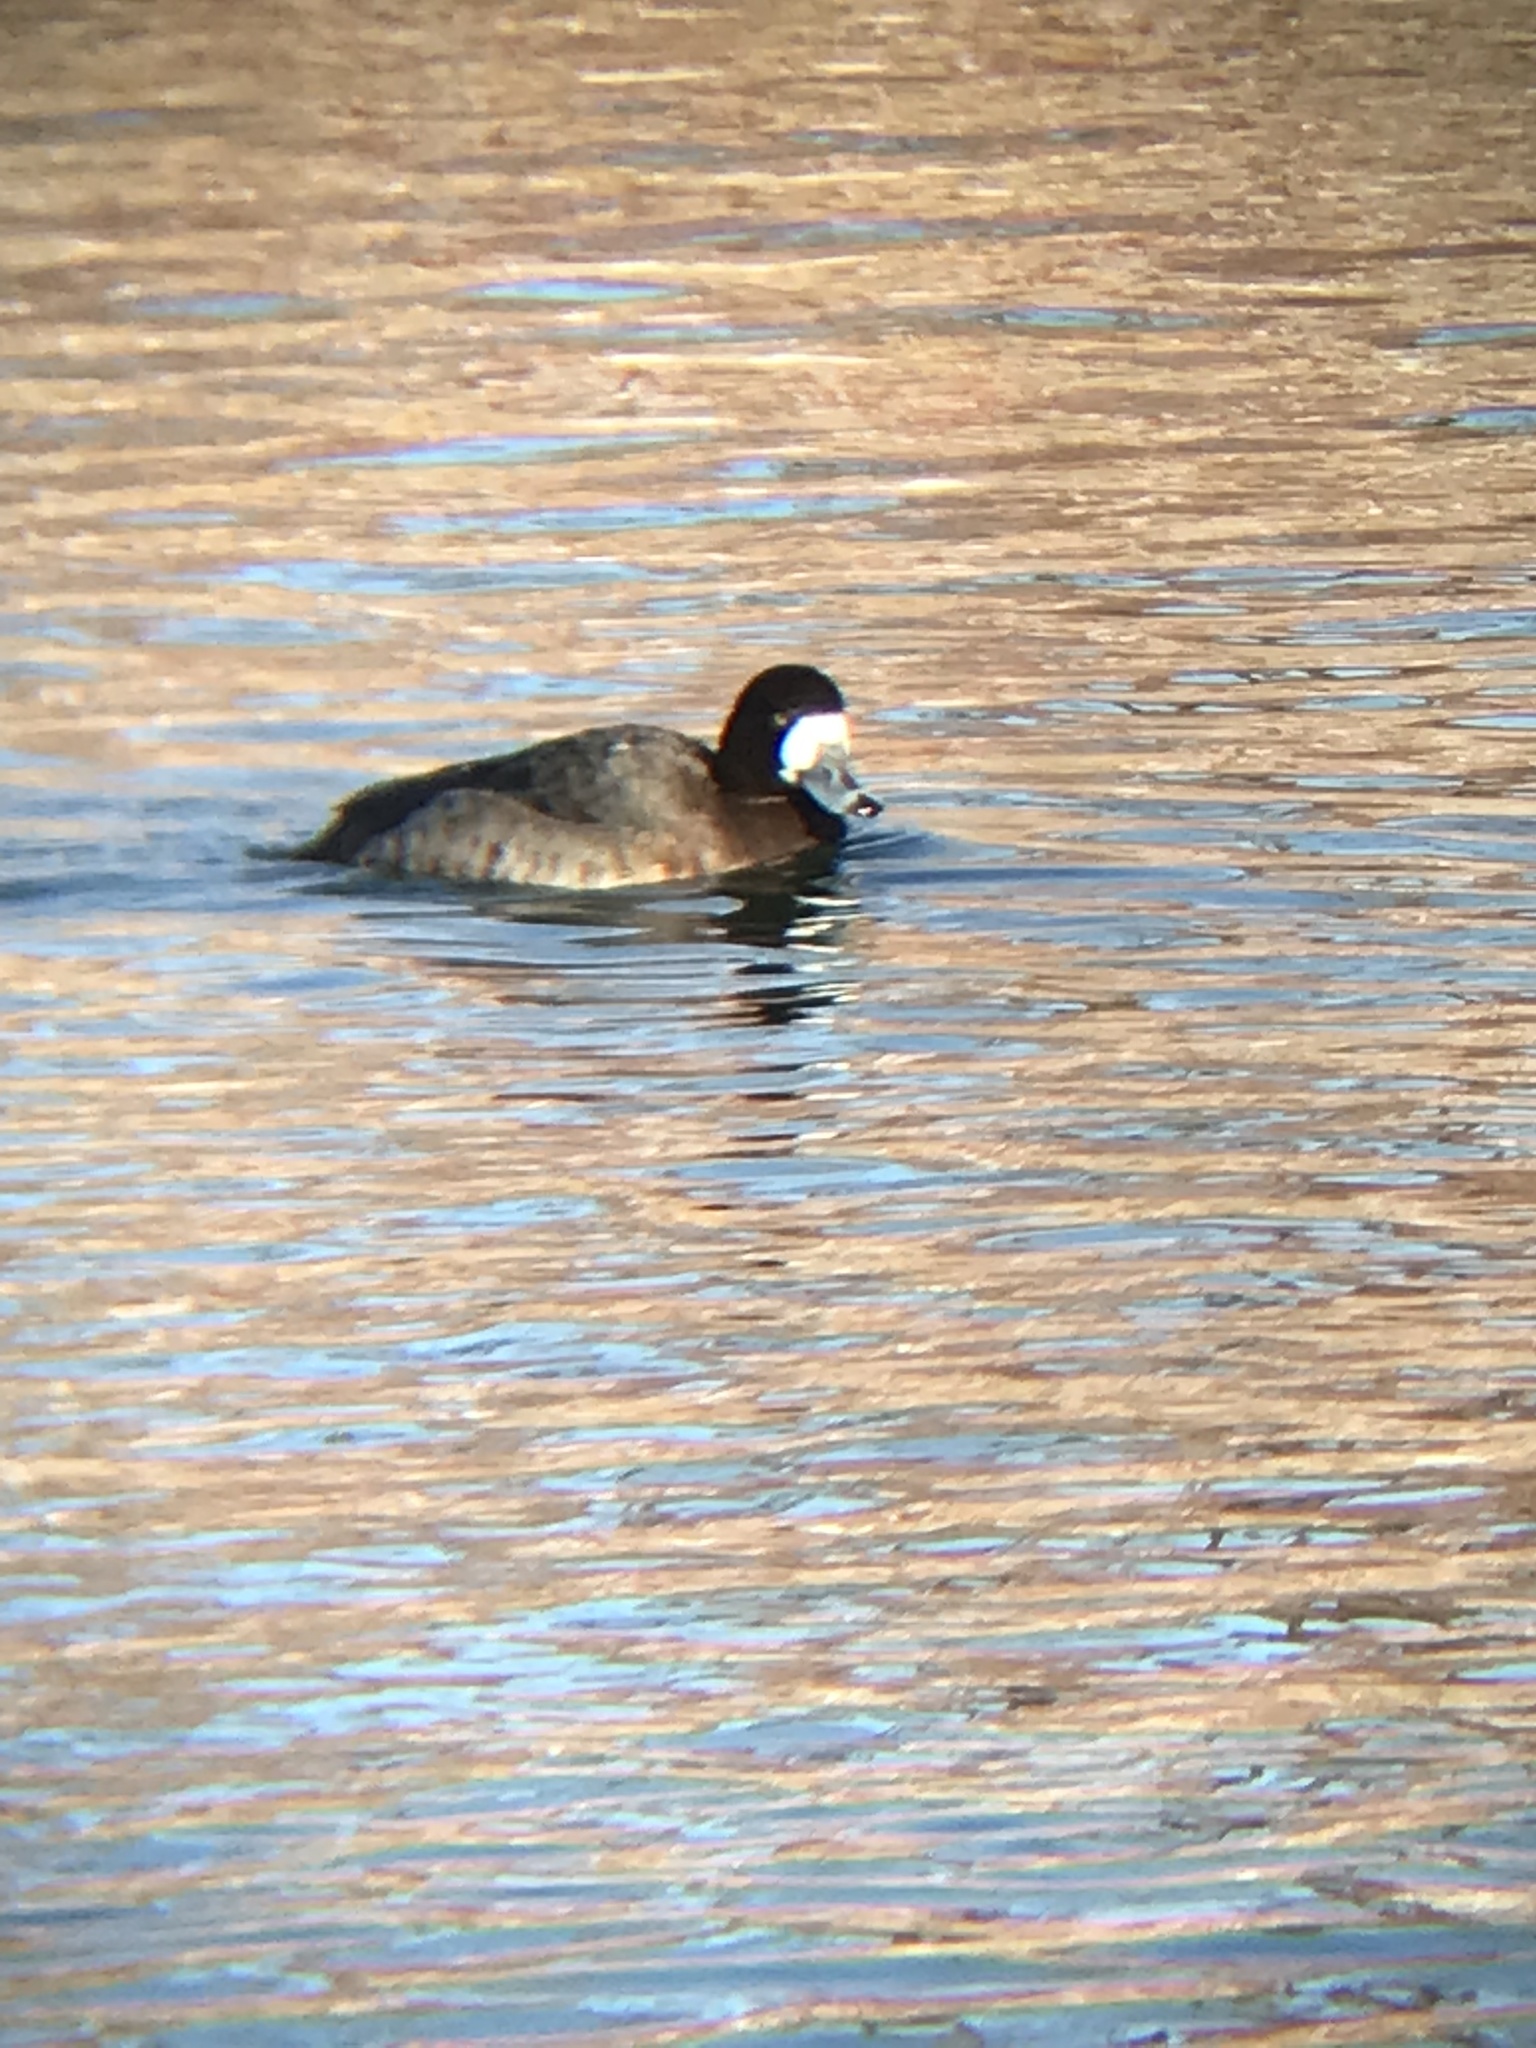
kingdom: Animalia
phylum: Chordata
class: Aves
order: Anseriformes
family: Anatidae
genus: Aythya
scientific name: Aythya marila
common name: Greater scaup
